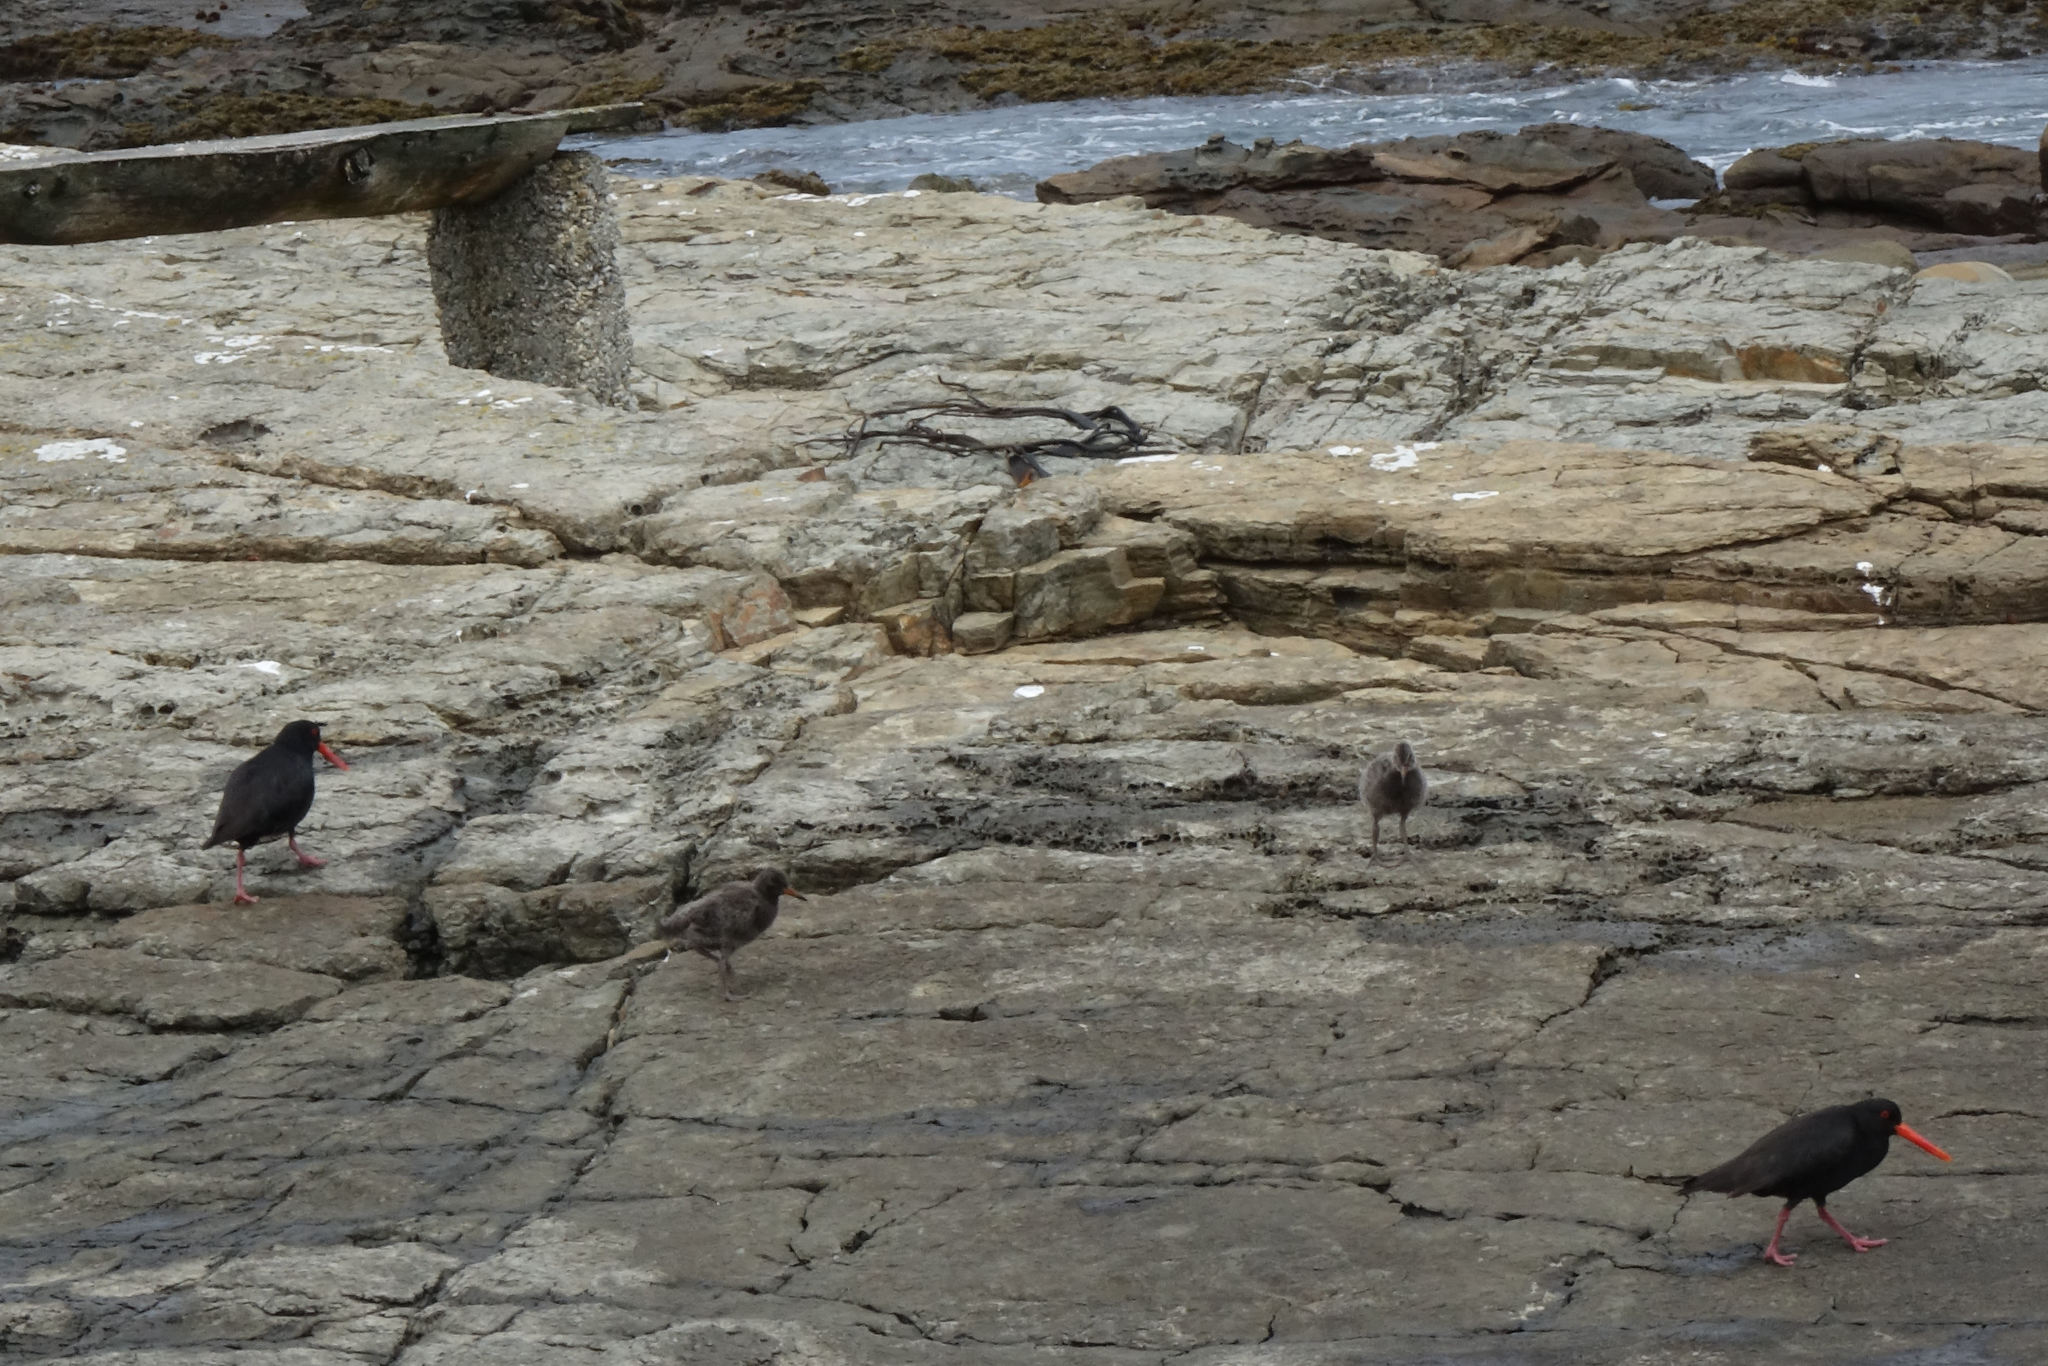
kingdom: Animalia
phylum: Chordata
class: Aves
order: Charadriiformes
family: Haematopodidae
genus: Haematopus
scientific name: Haematopus unicolor
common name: Variable oystercatcher
